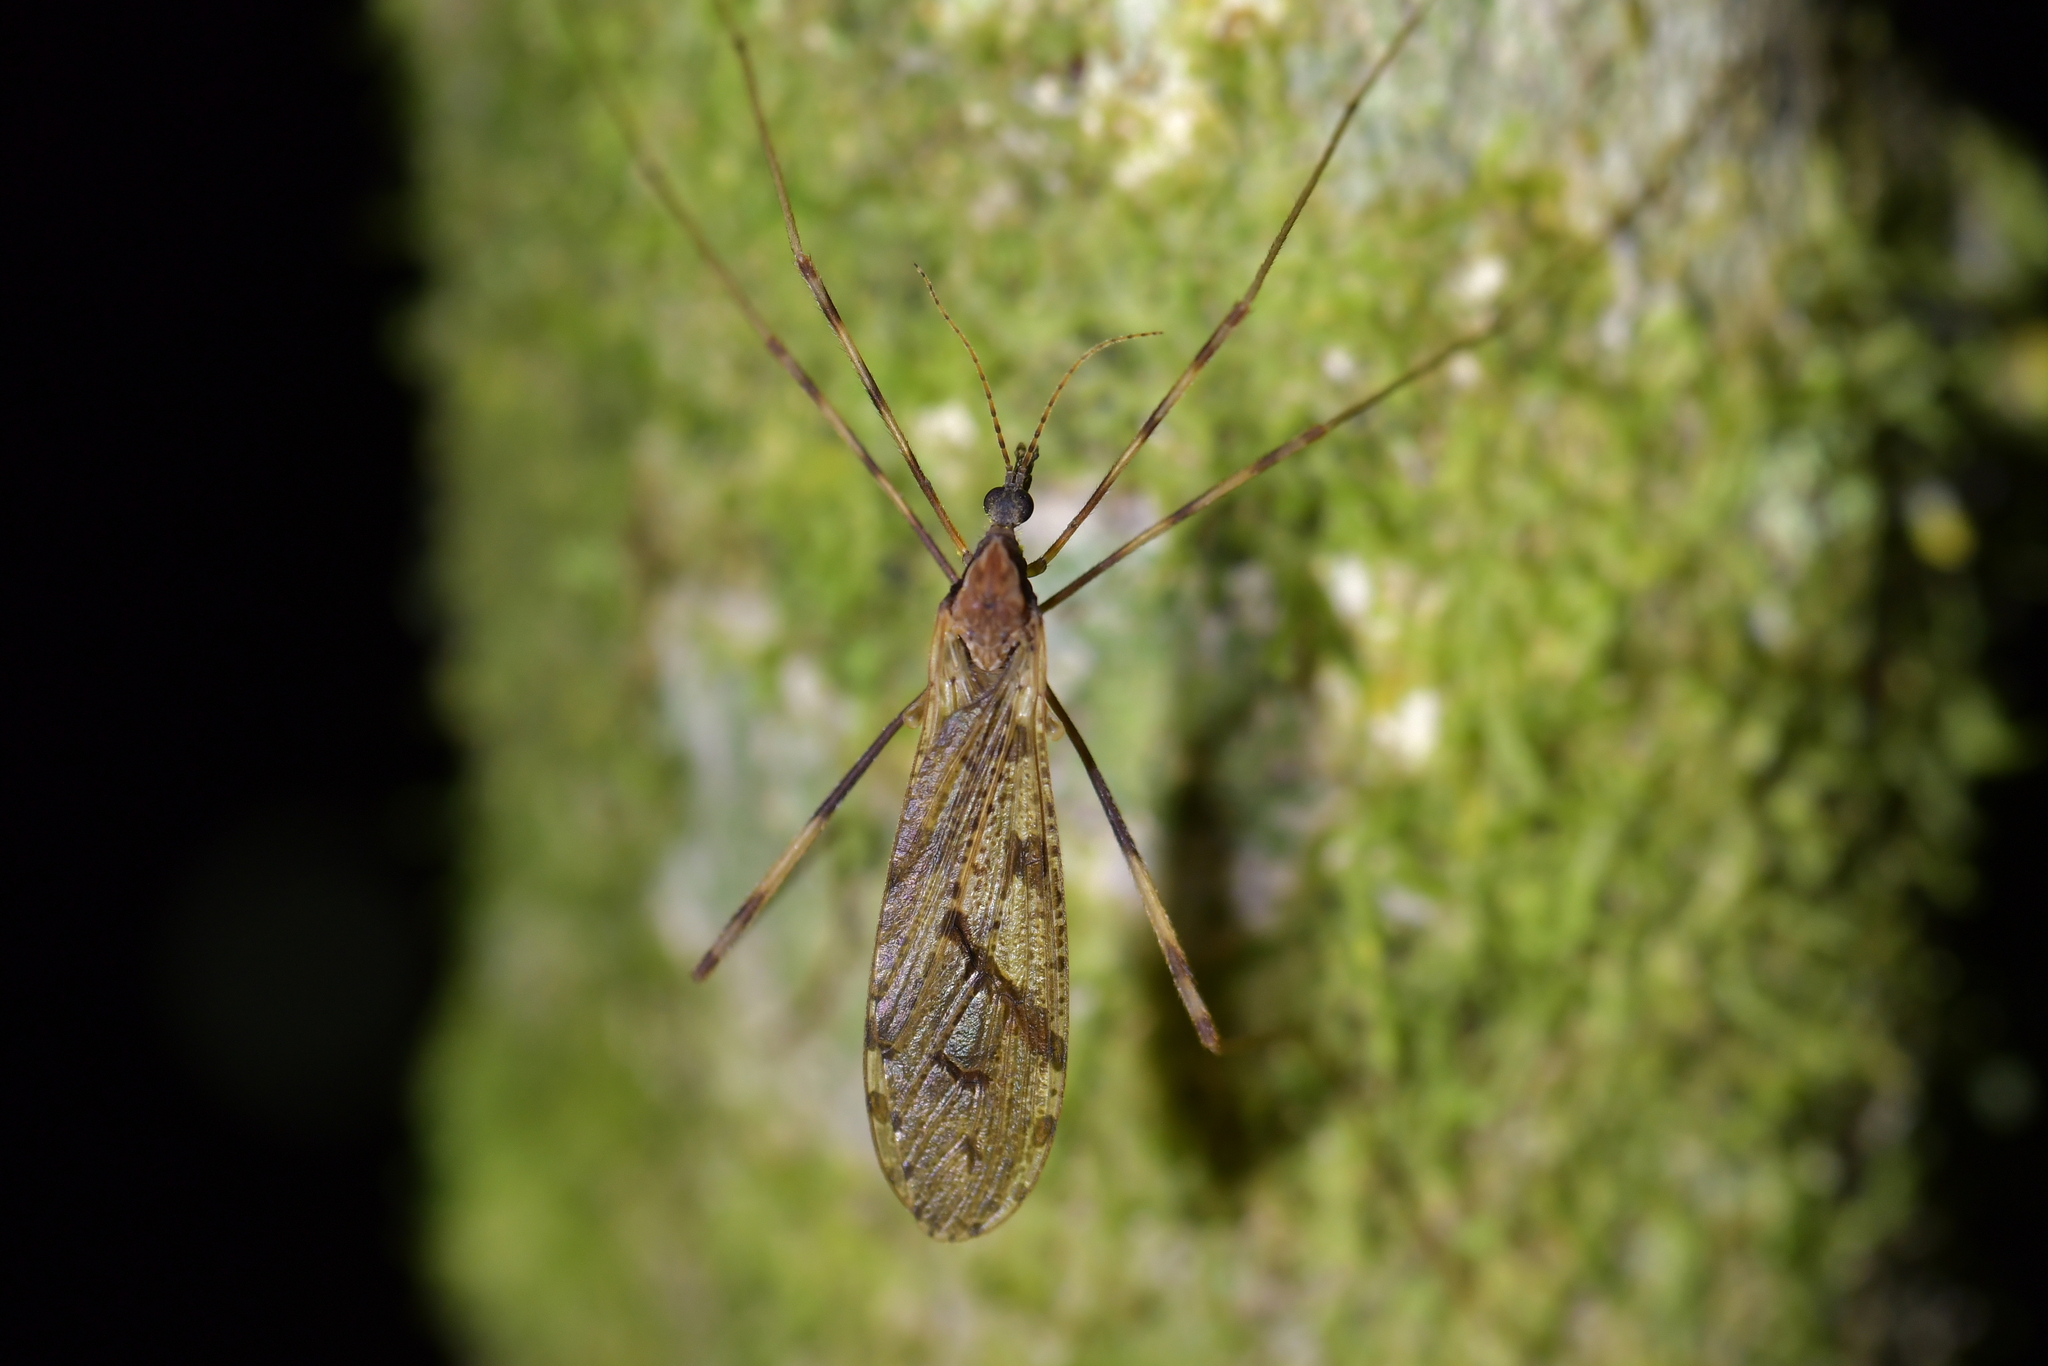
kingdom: Animalia
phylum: Arthropoda
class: Insecta
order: Diptera
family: Limoniidae
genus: Rhamphophila
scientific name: Rhamphophila sinistra
